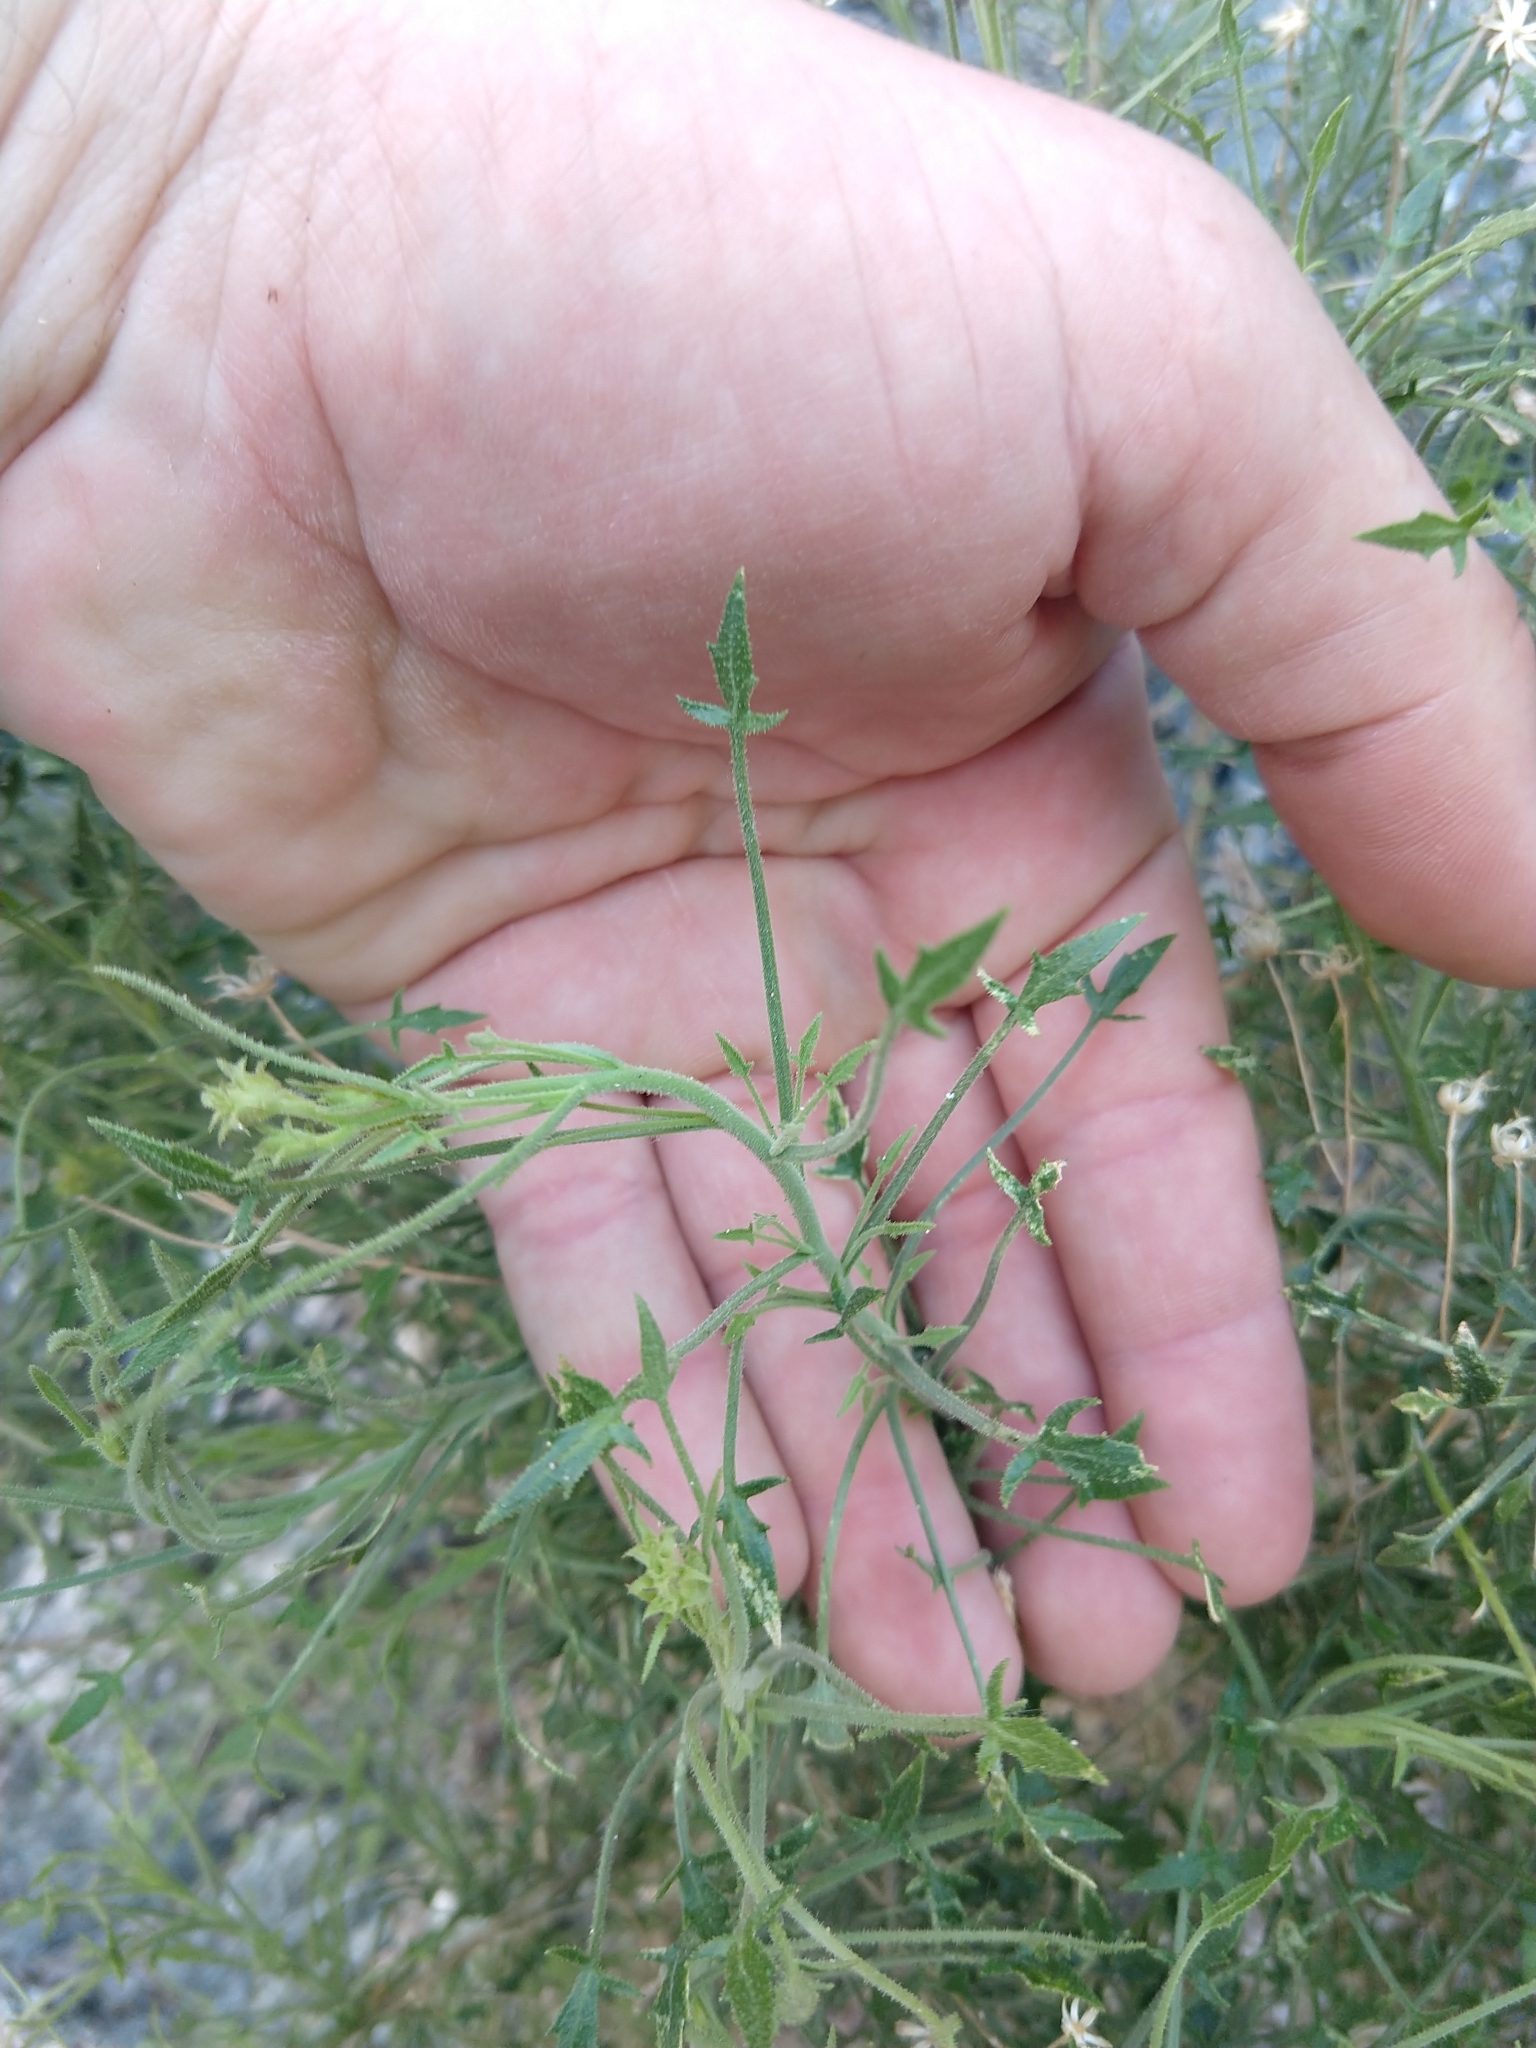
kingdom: Plantae
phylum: Tracheophyta
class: Magnoliopsida
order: Asterales
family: Asteraceae
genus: Pleurocoronis
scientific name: Pleurocoronis pluriseta
